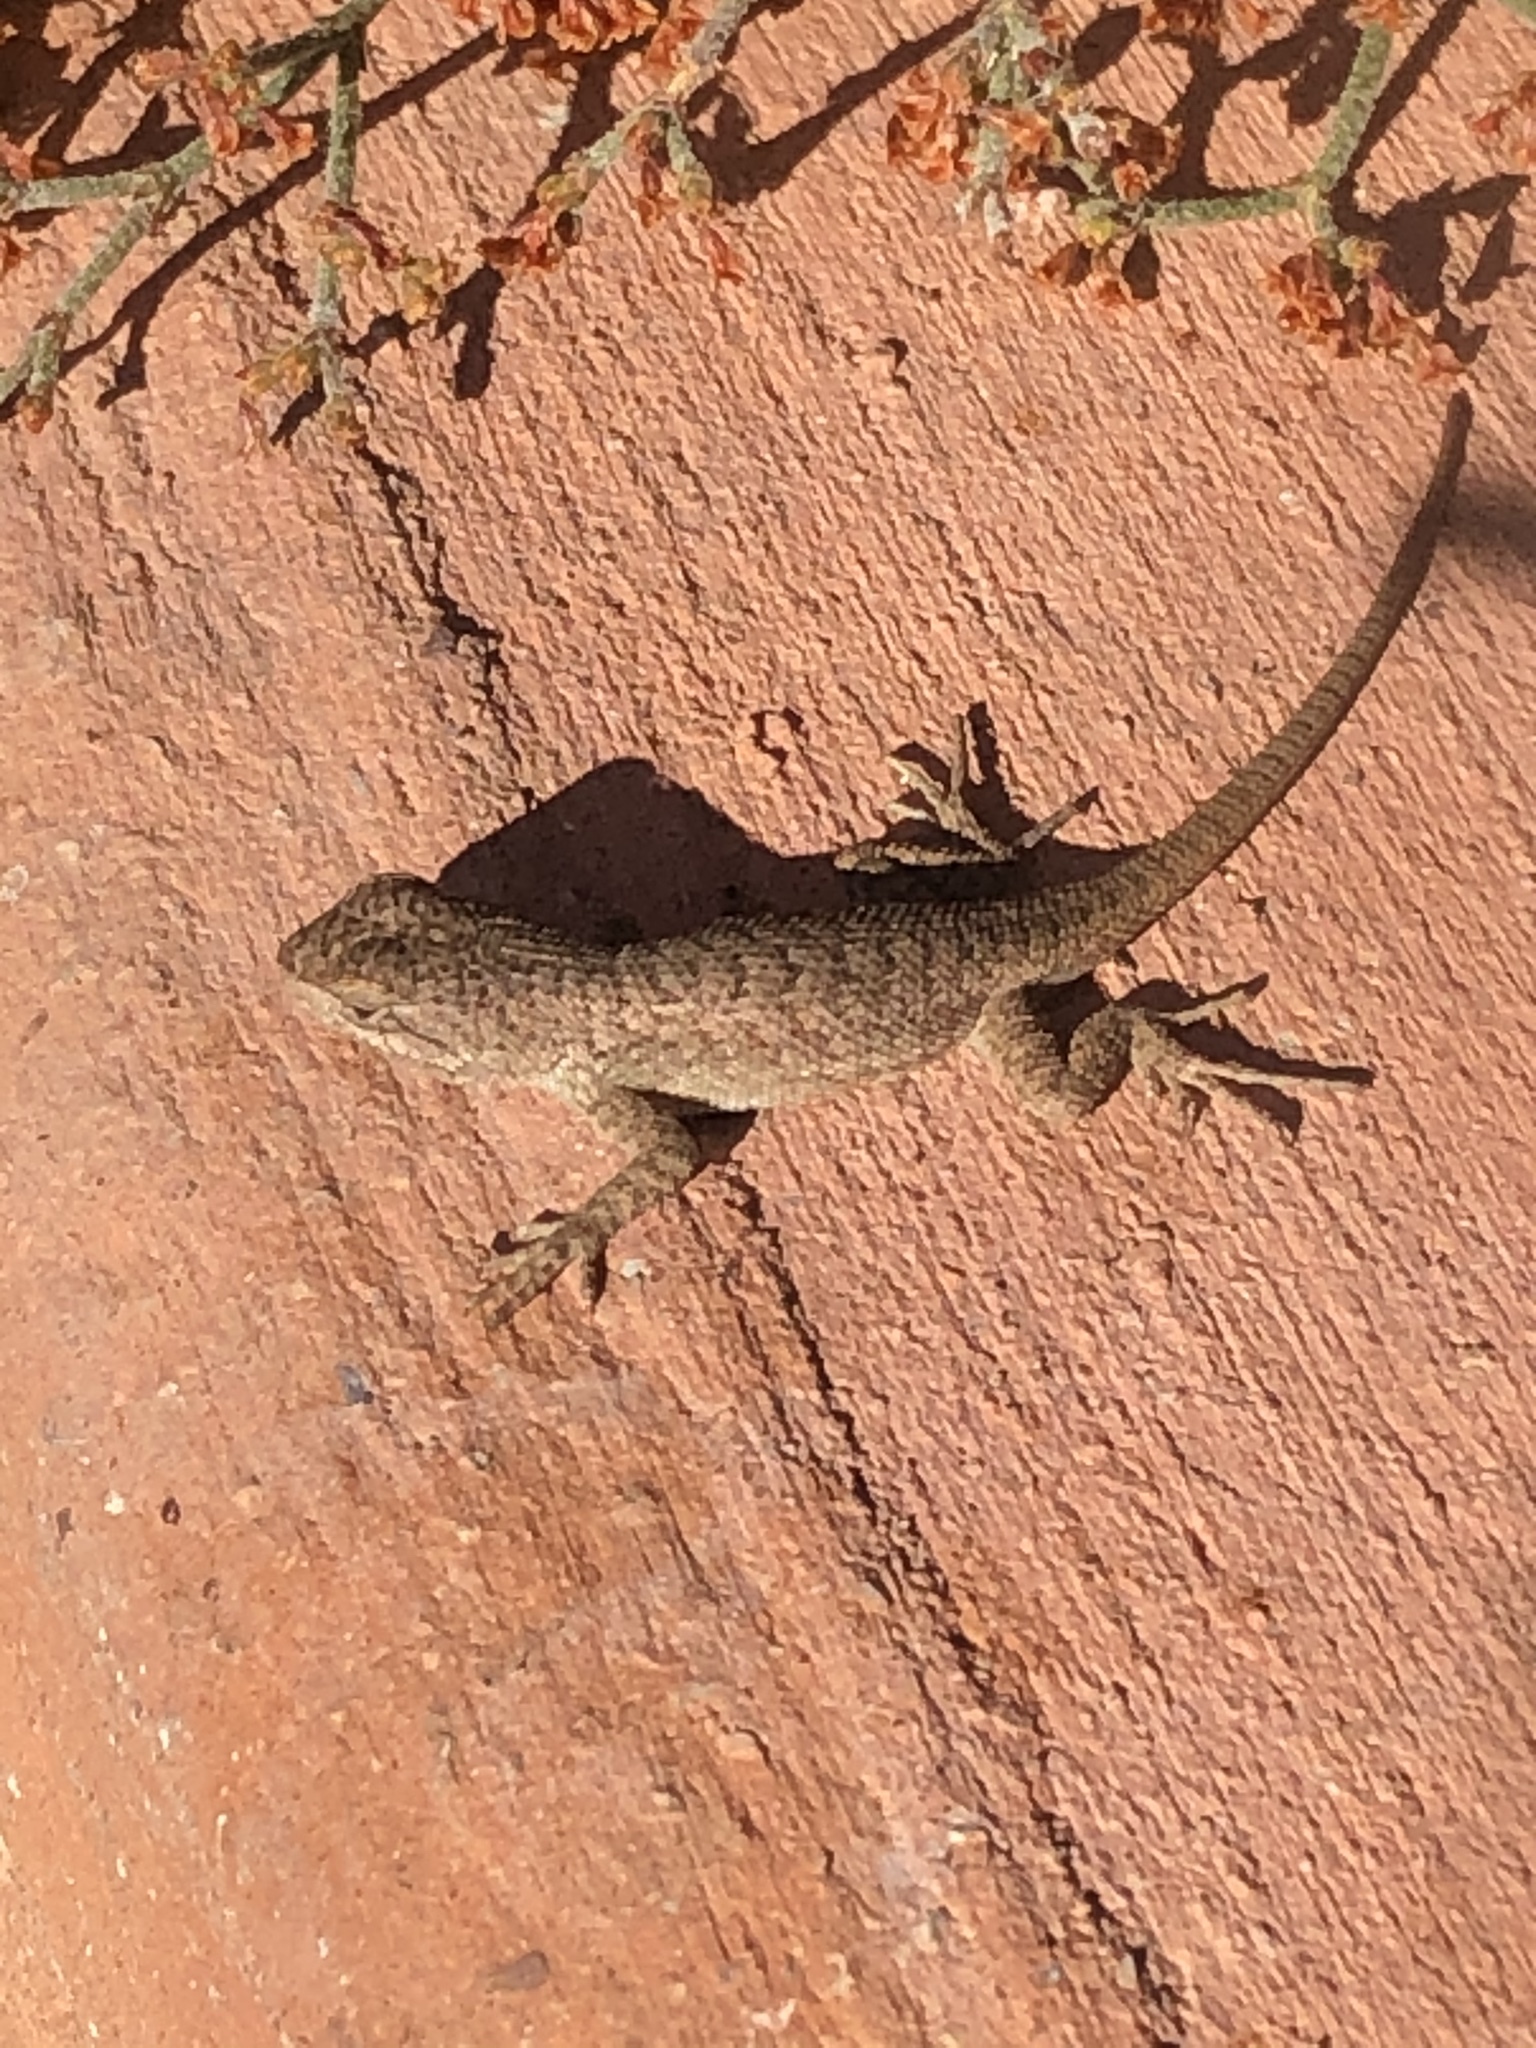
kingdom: Animalia
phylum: Chordata
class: Squamata
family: Phrynosomatidae
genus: Sceloporus
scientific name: Sceloporus tristichus
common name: Plateau fence lizard
